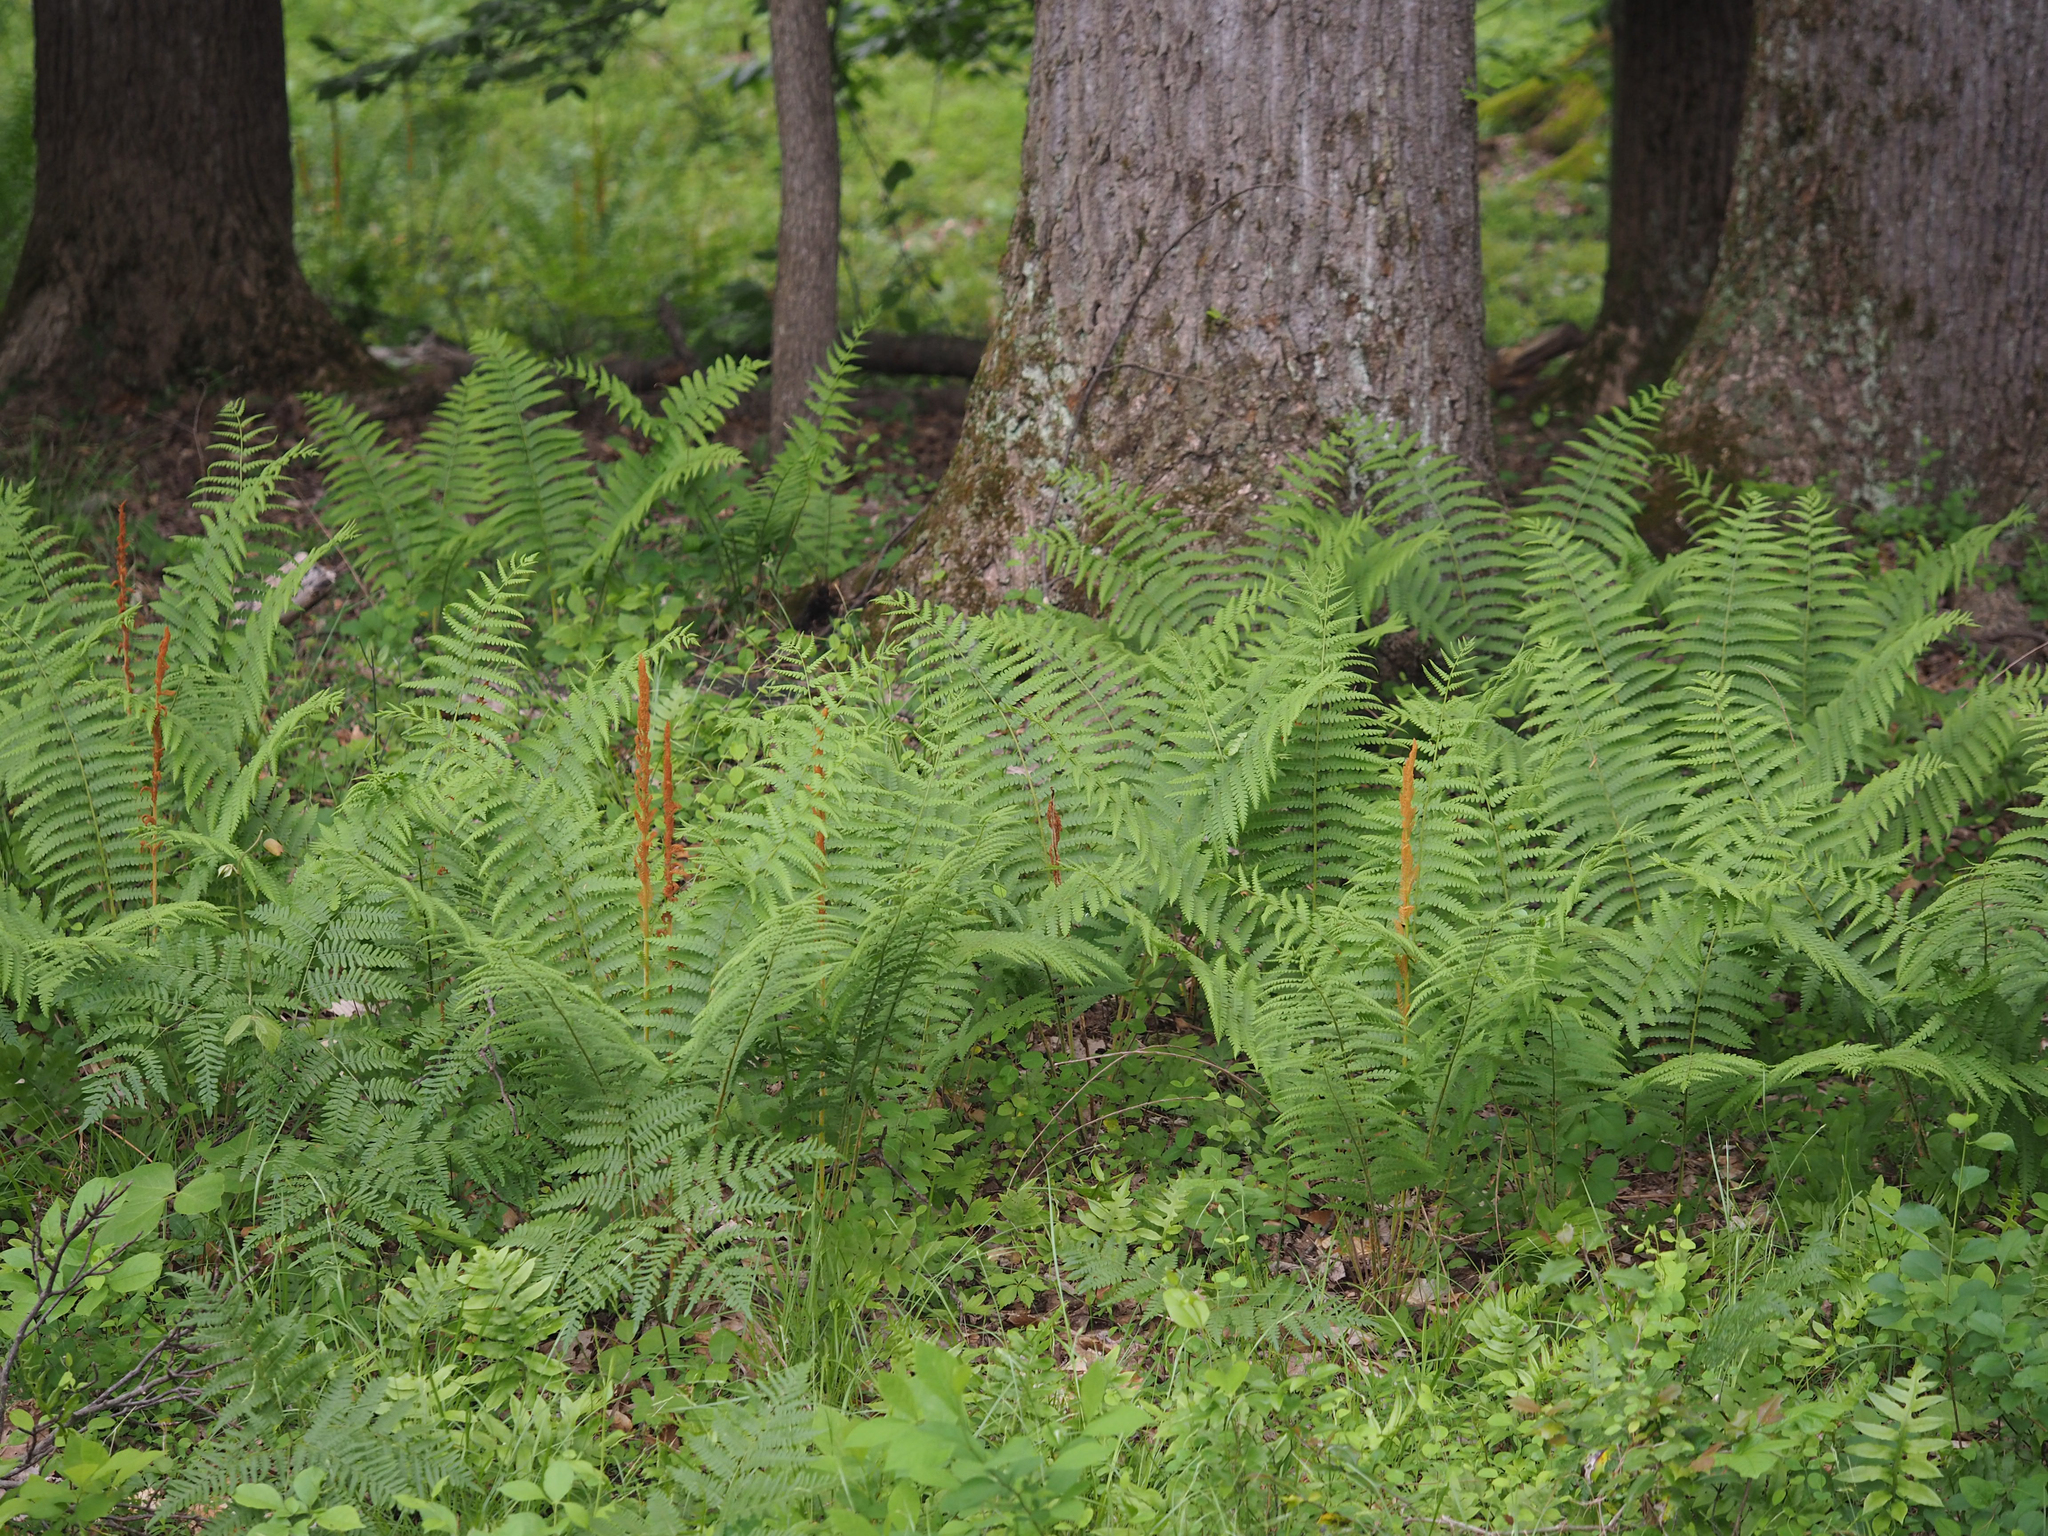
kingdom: Plantae
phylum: Tracheophyta
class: Polypodiopsida
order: Osmundales
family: Osmundaceae
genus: Osmundastrum
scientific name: Osmundastrum cinnamomeum
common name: Cinnamon fern
